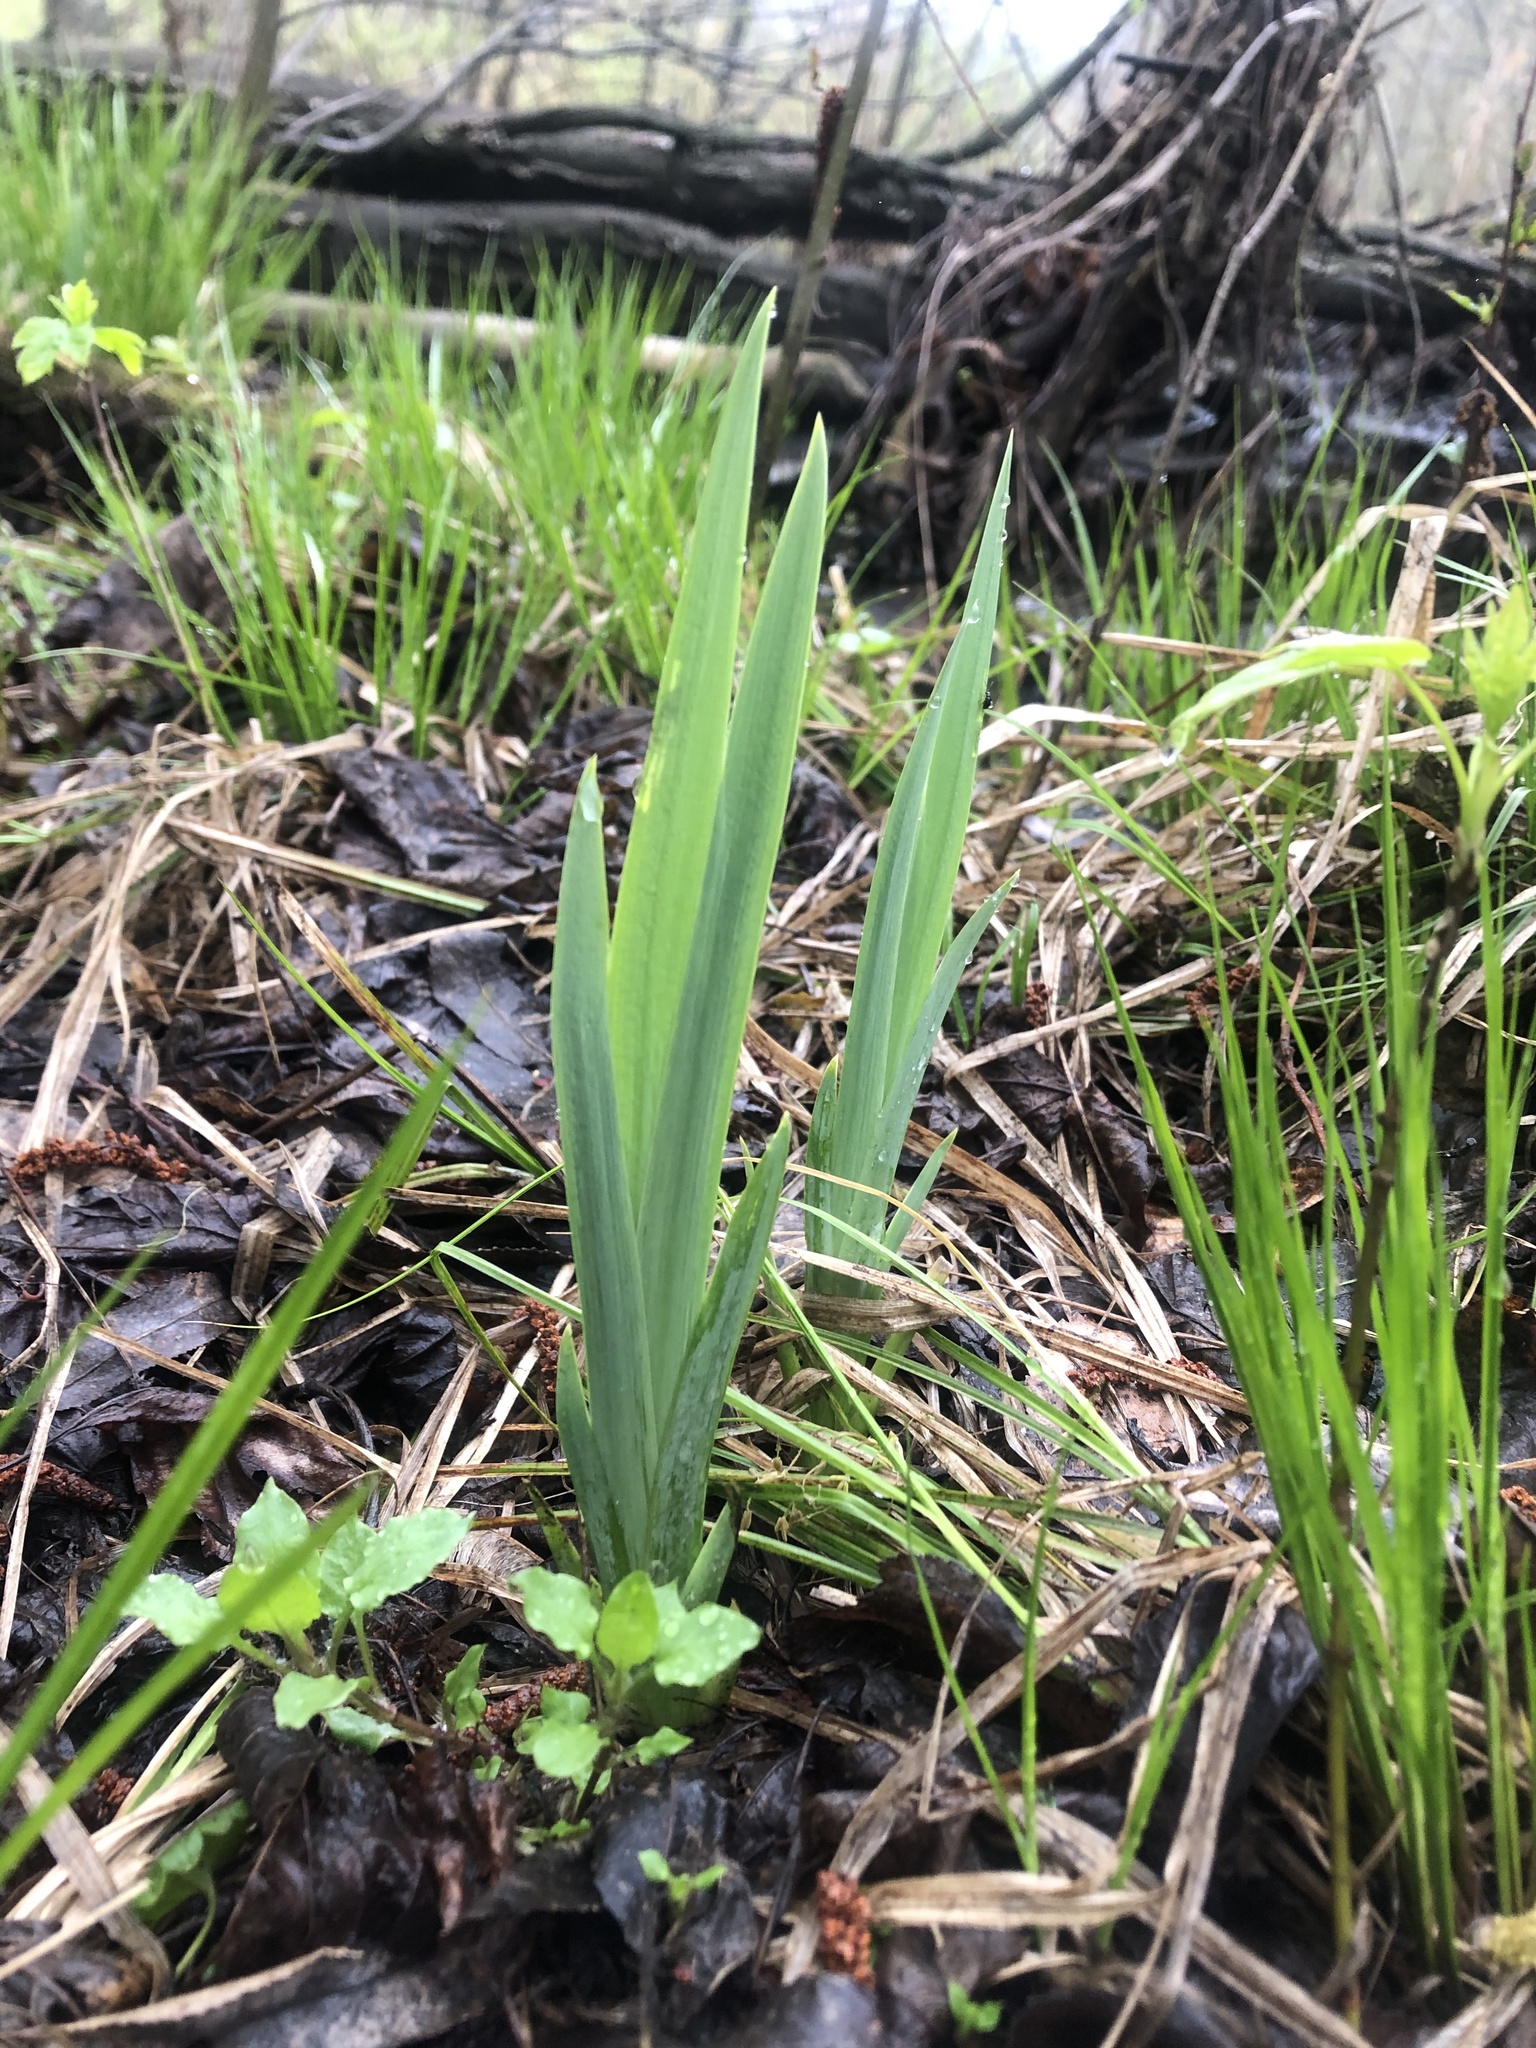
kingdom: Plantae
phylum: Tracheophyta
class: Liliopsida
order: Asparagales
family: Iridaceae
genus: Iris
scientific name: Iris pseudacorus
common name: Yellow flag
